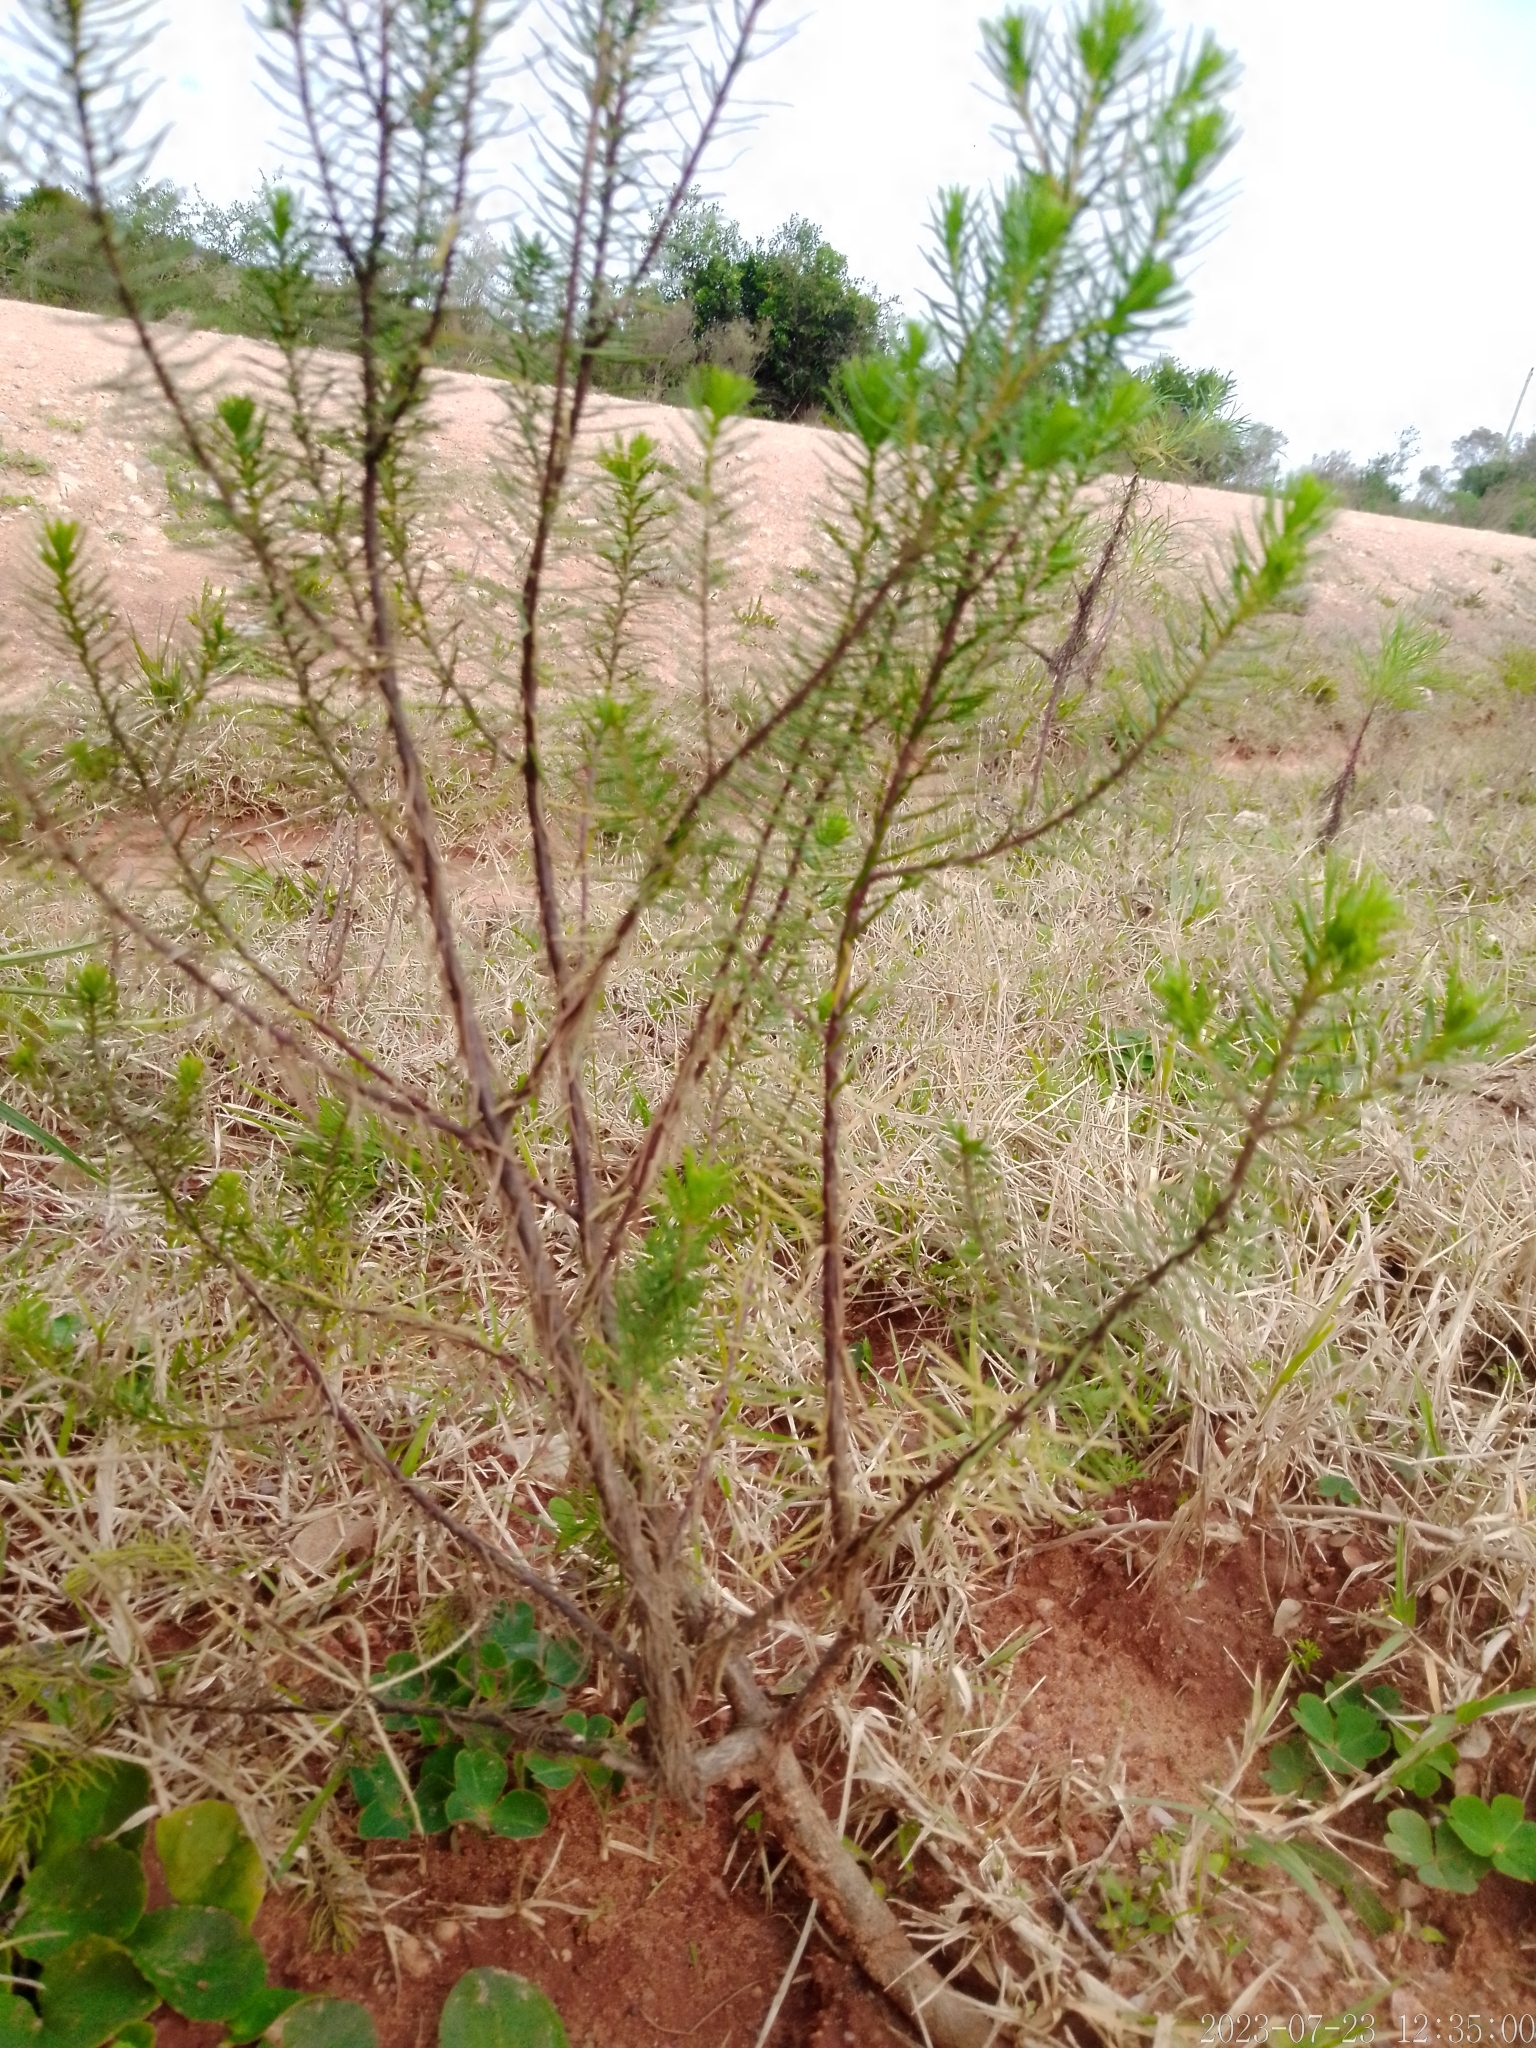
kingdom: Plantae
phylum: Tracheophyta
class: Magnoliopsida
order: Asterales
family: Asteraceae
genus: Baccharis
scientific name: Baccharis aliena
